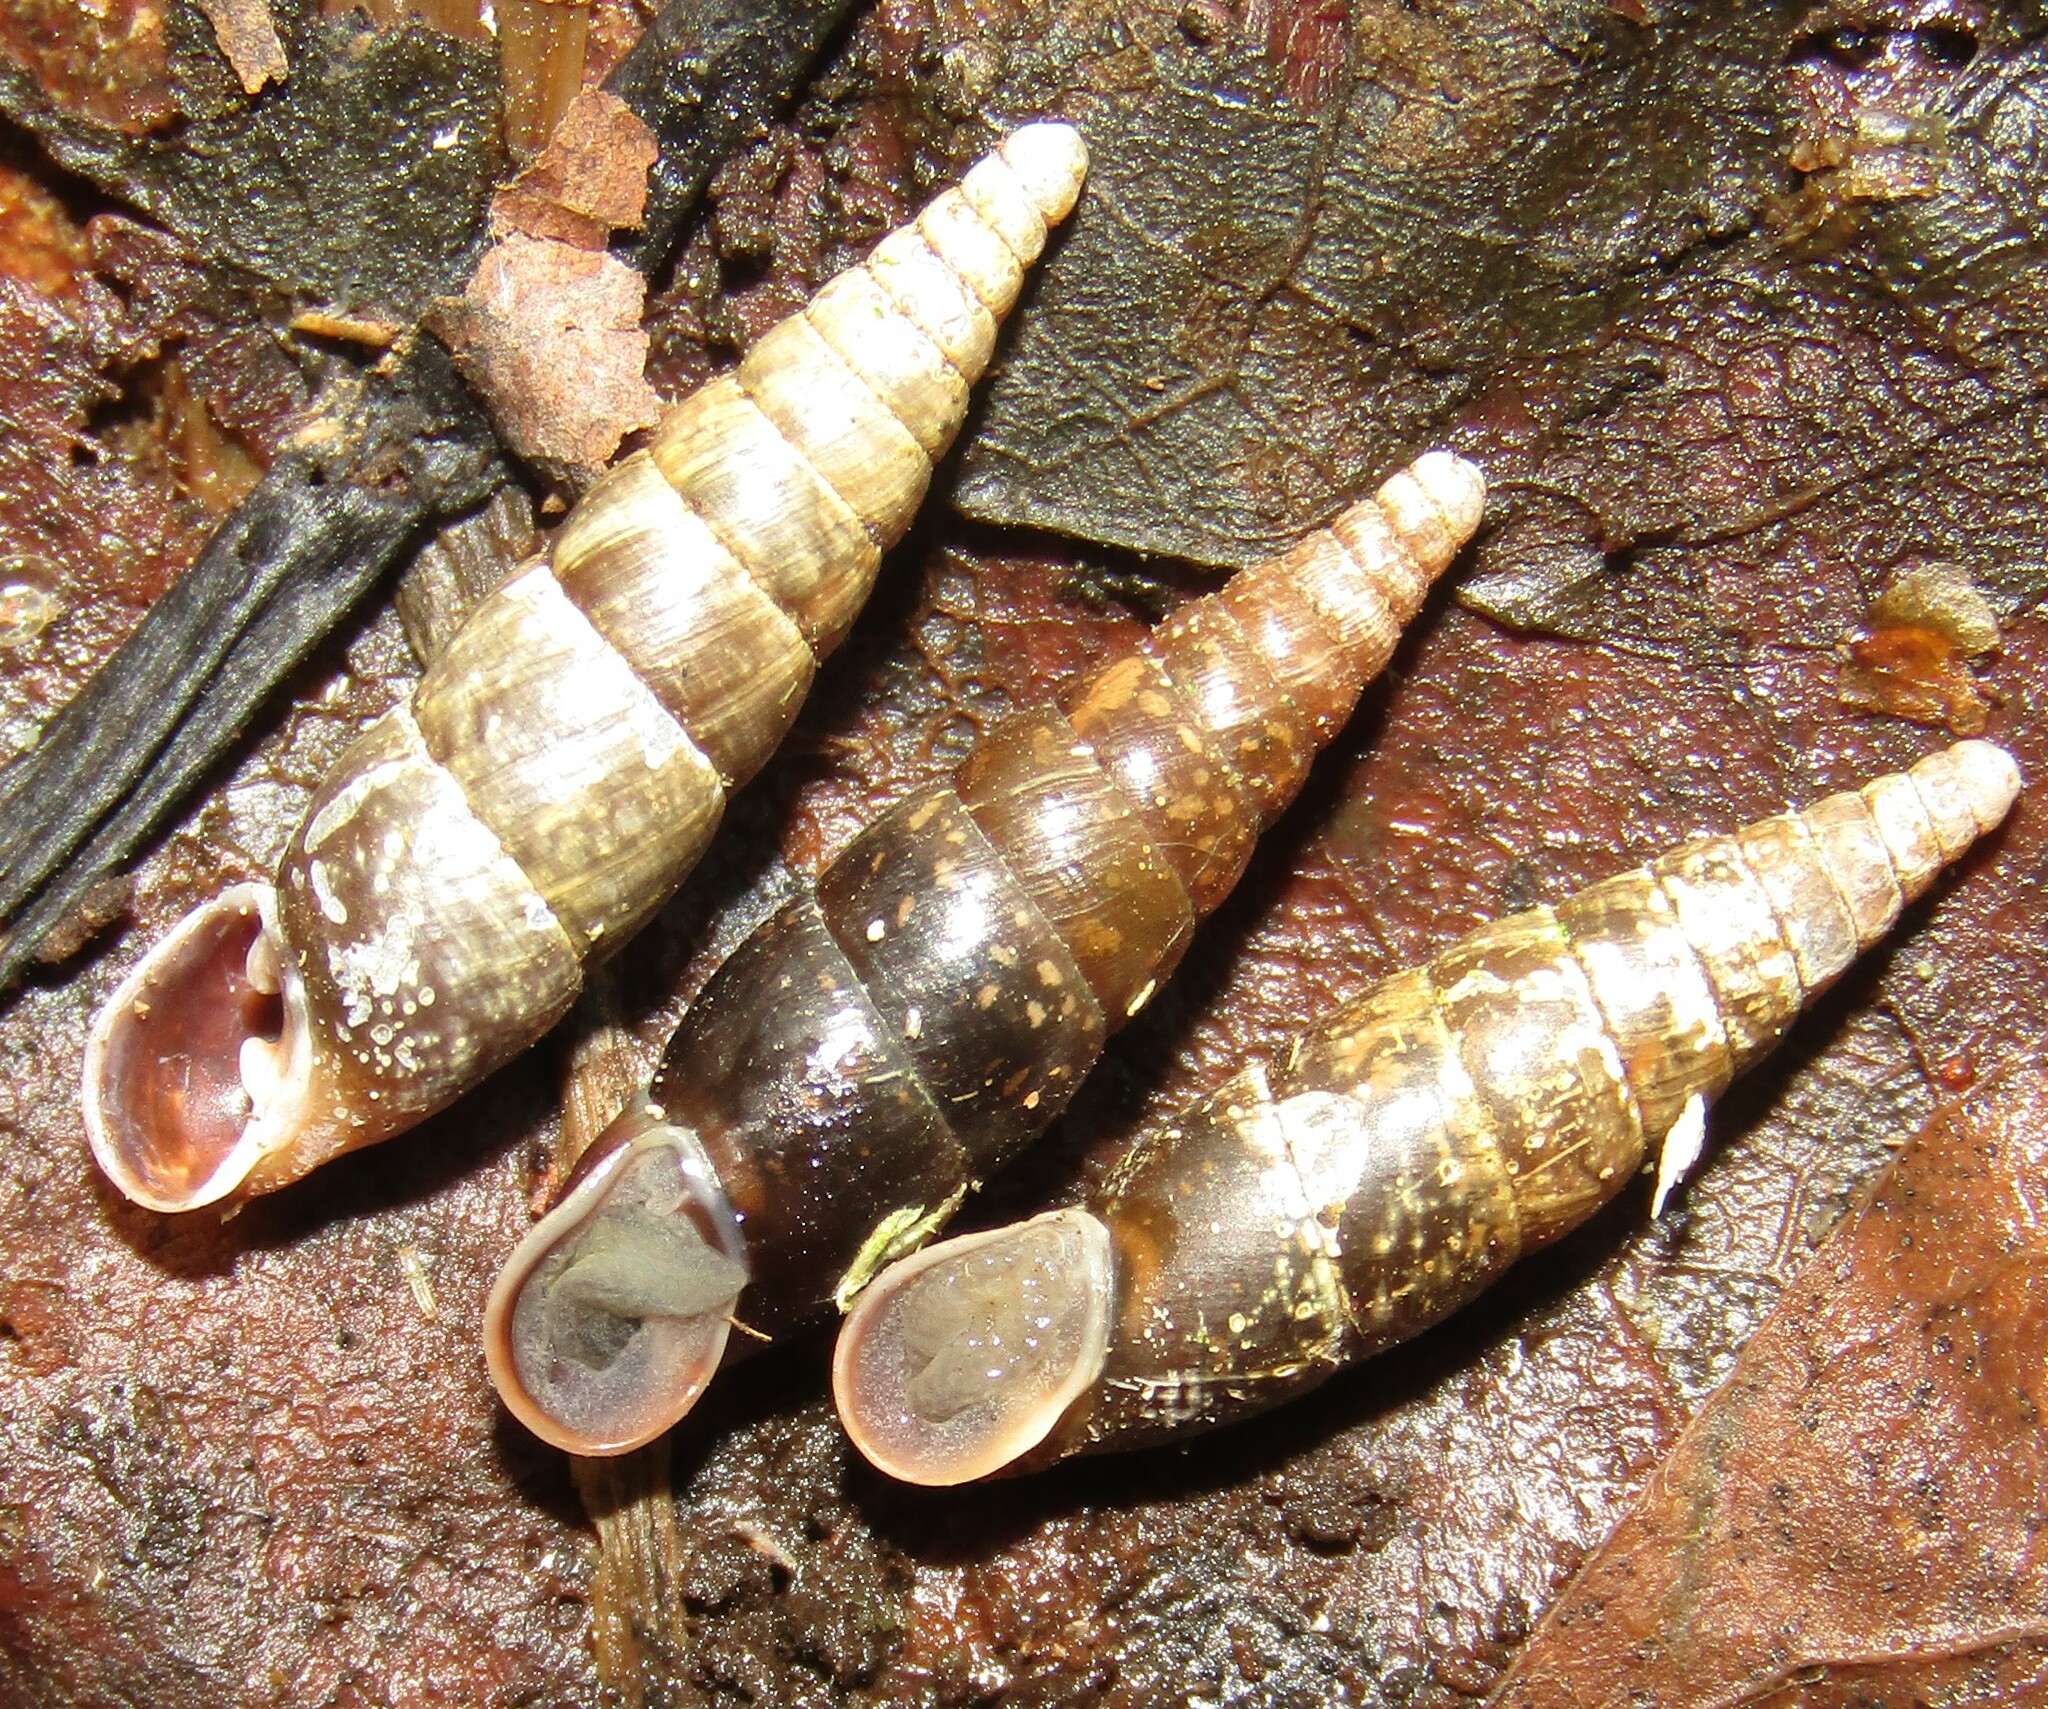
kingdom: Animalia
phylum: Mollusca
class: Gastropoda
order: Stylommatophora
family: Clausiliidae
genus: Cochlodina
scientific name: Cochlodina laminata
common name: Plaited door snail
